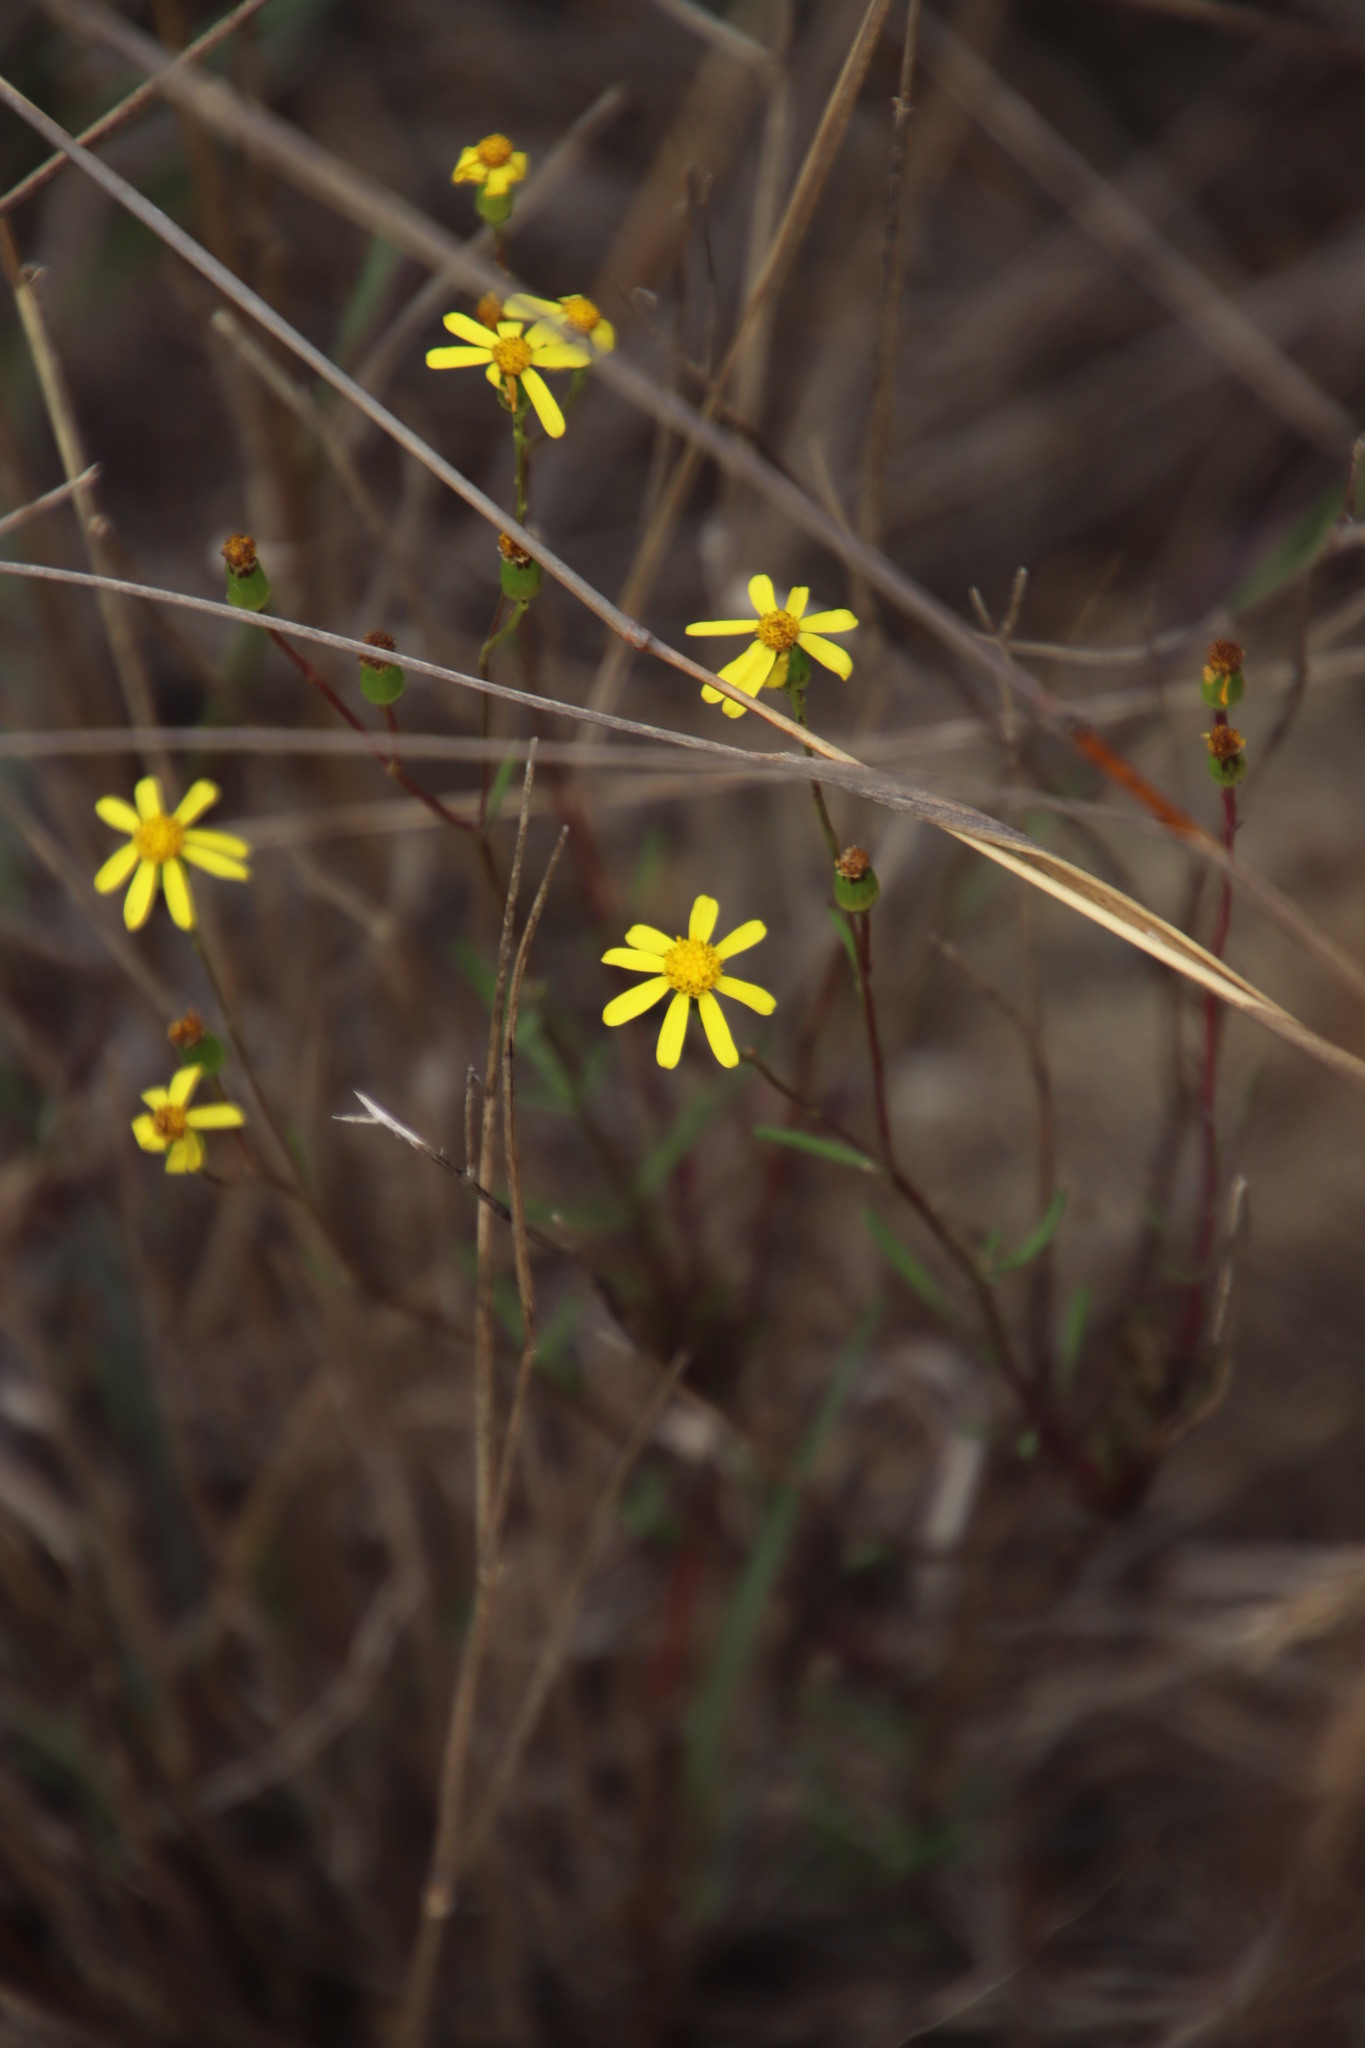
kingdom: Plantae
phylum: Tracheophyta
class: Magnoliopsida
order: Asterales
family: Asteraceae
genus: Senecio
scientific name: Senecio burchellii
